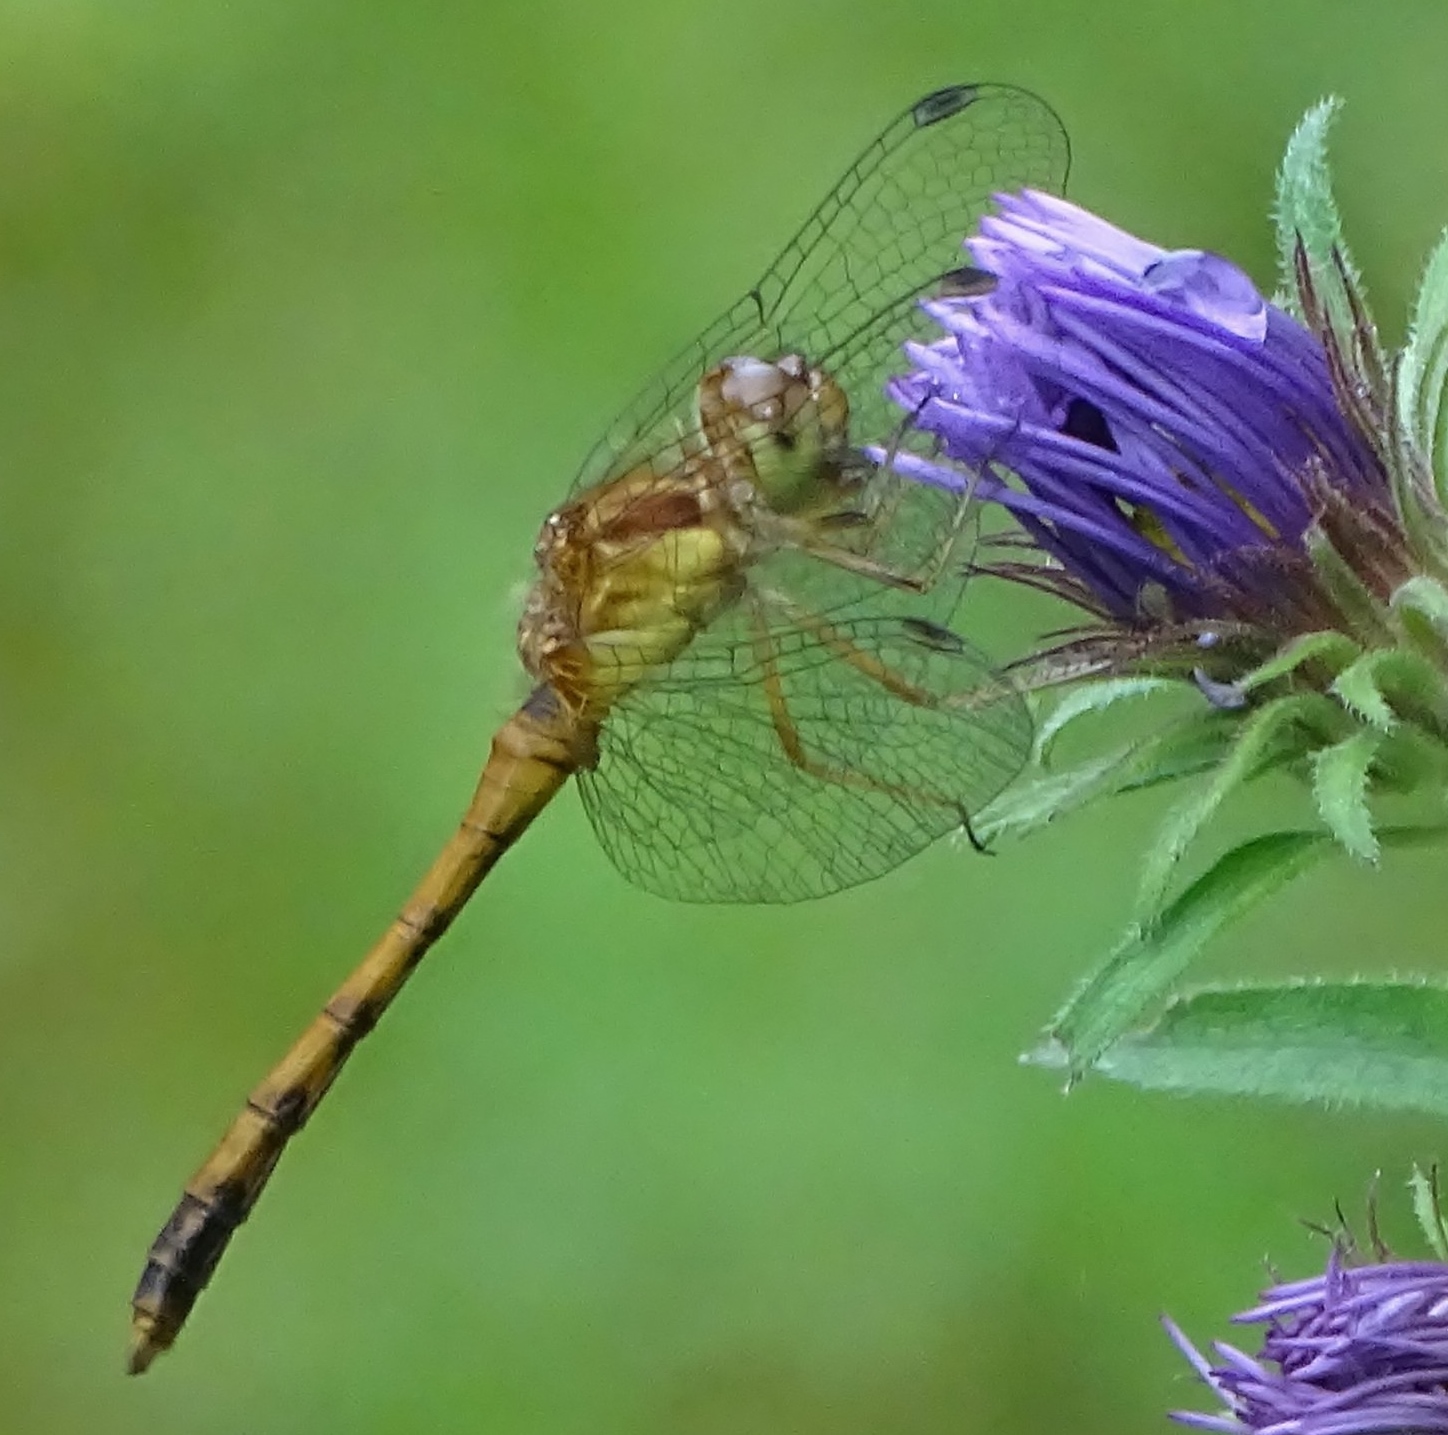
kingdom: Animalia
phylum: Arthropoda
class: Insecta
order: Odonata
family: Libellulidae
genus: Sympetrum
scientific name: Sympetrum vicinum
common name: Autumn meadowhawk
